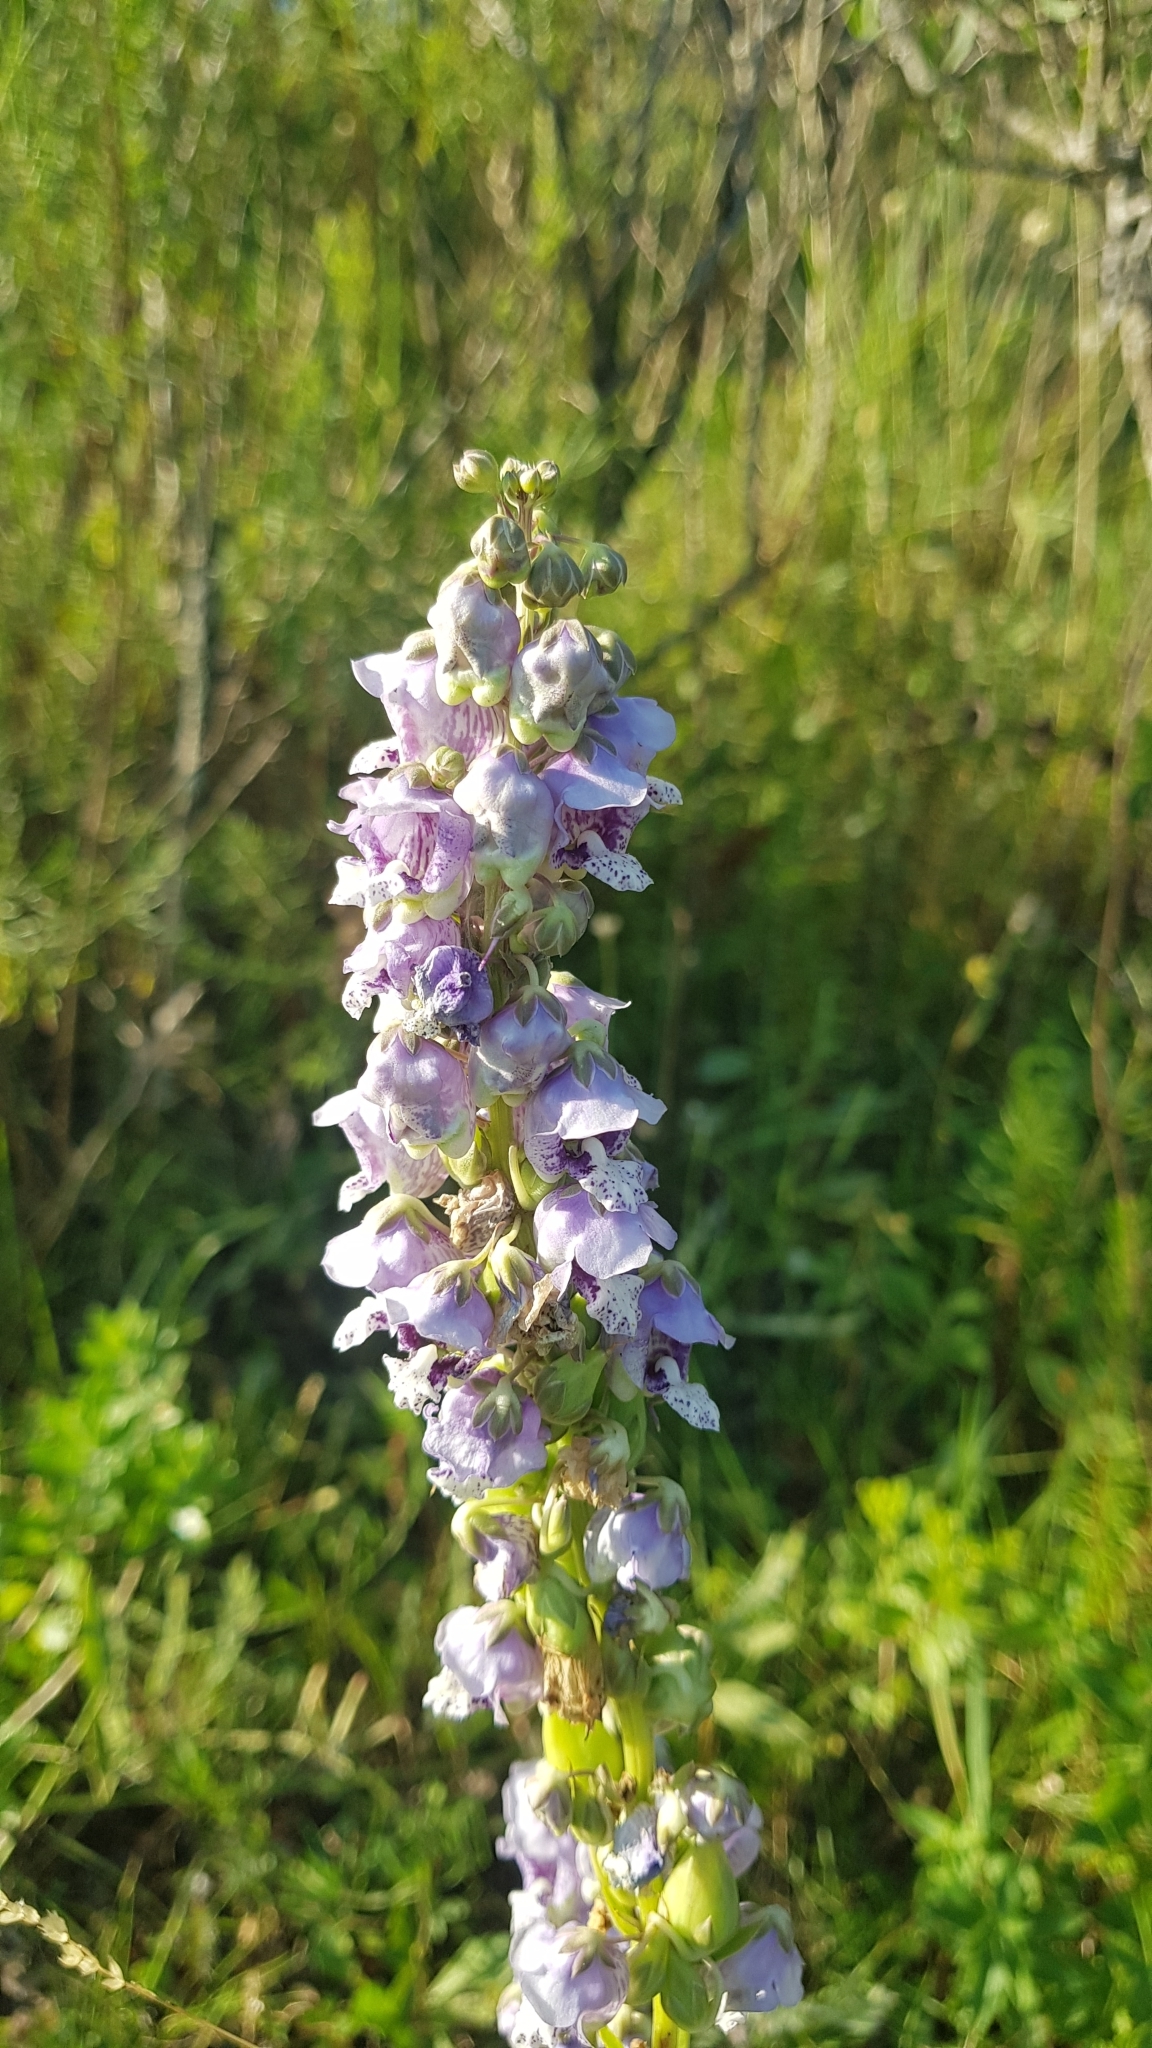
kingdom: Plantae
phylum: Tracheophyta
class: Magnoliopsida
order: Lamiales
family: Plantaginaceae
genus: Angelonia
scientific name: Angelonia integerrima
